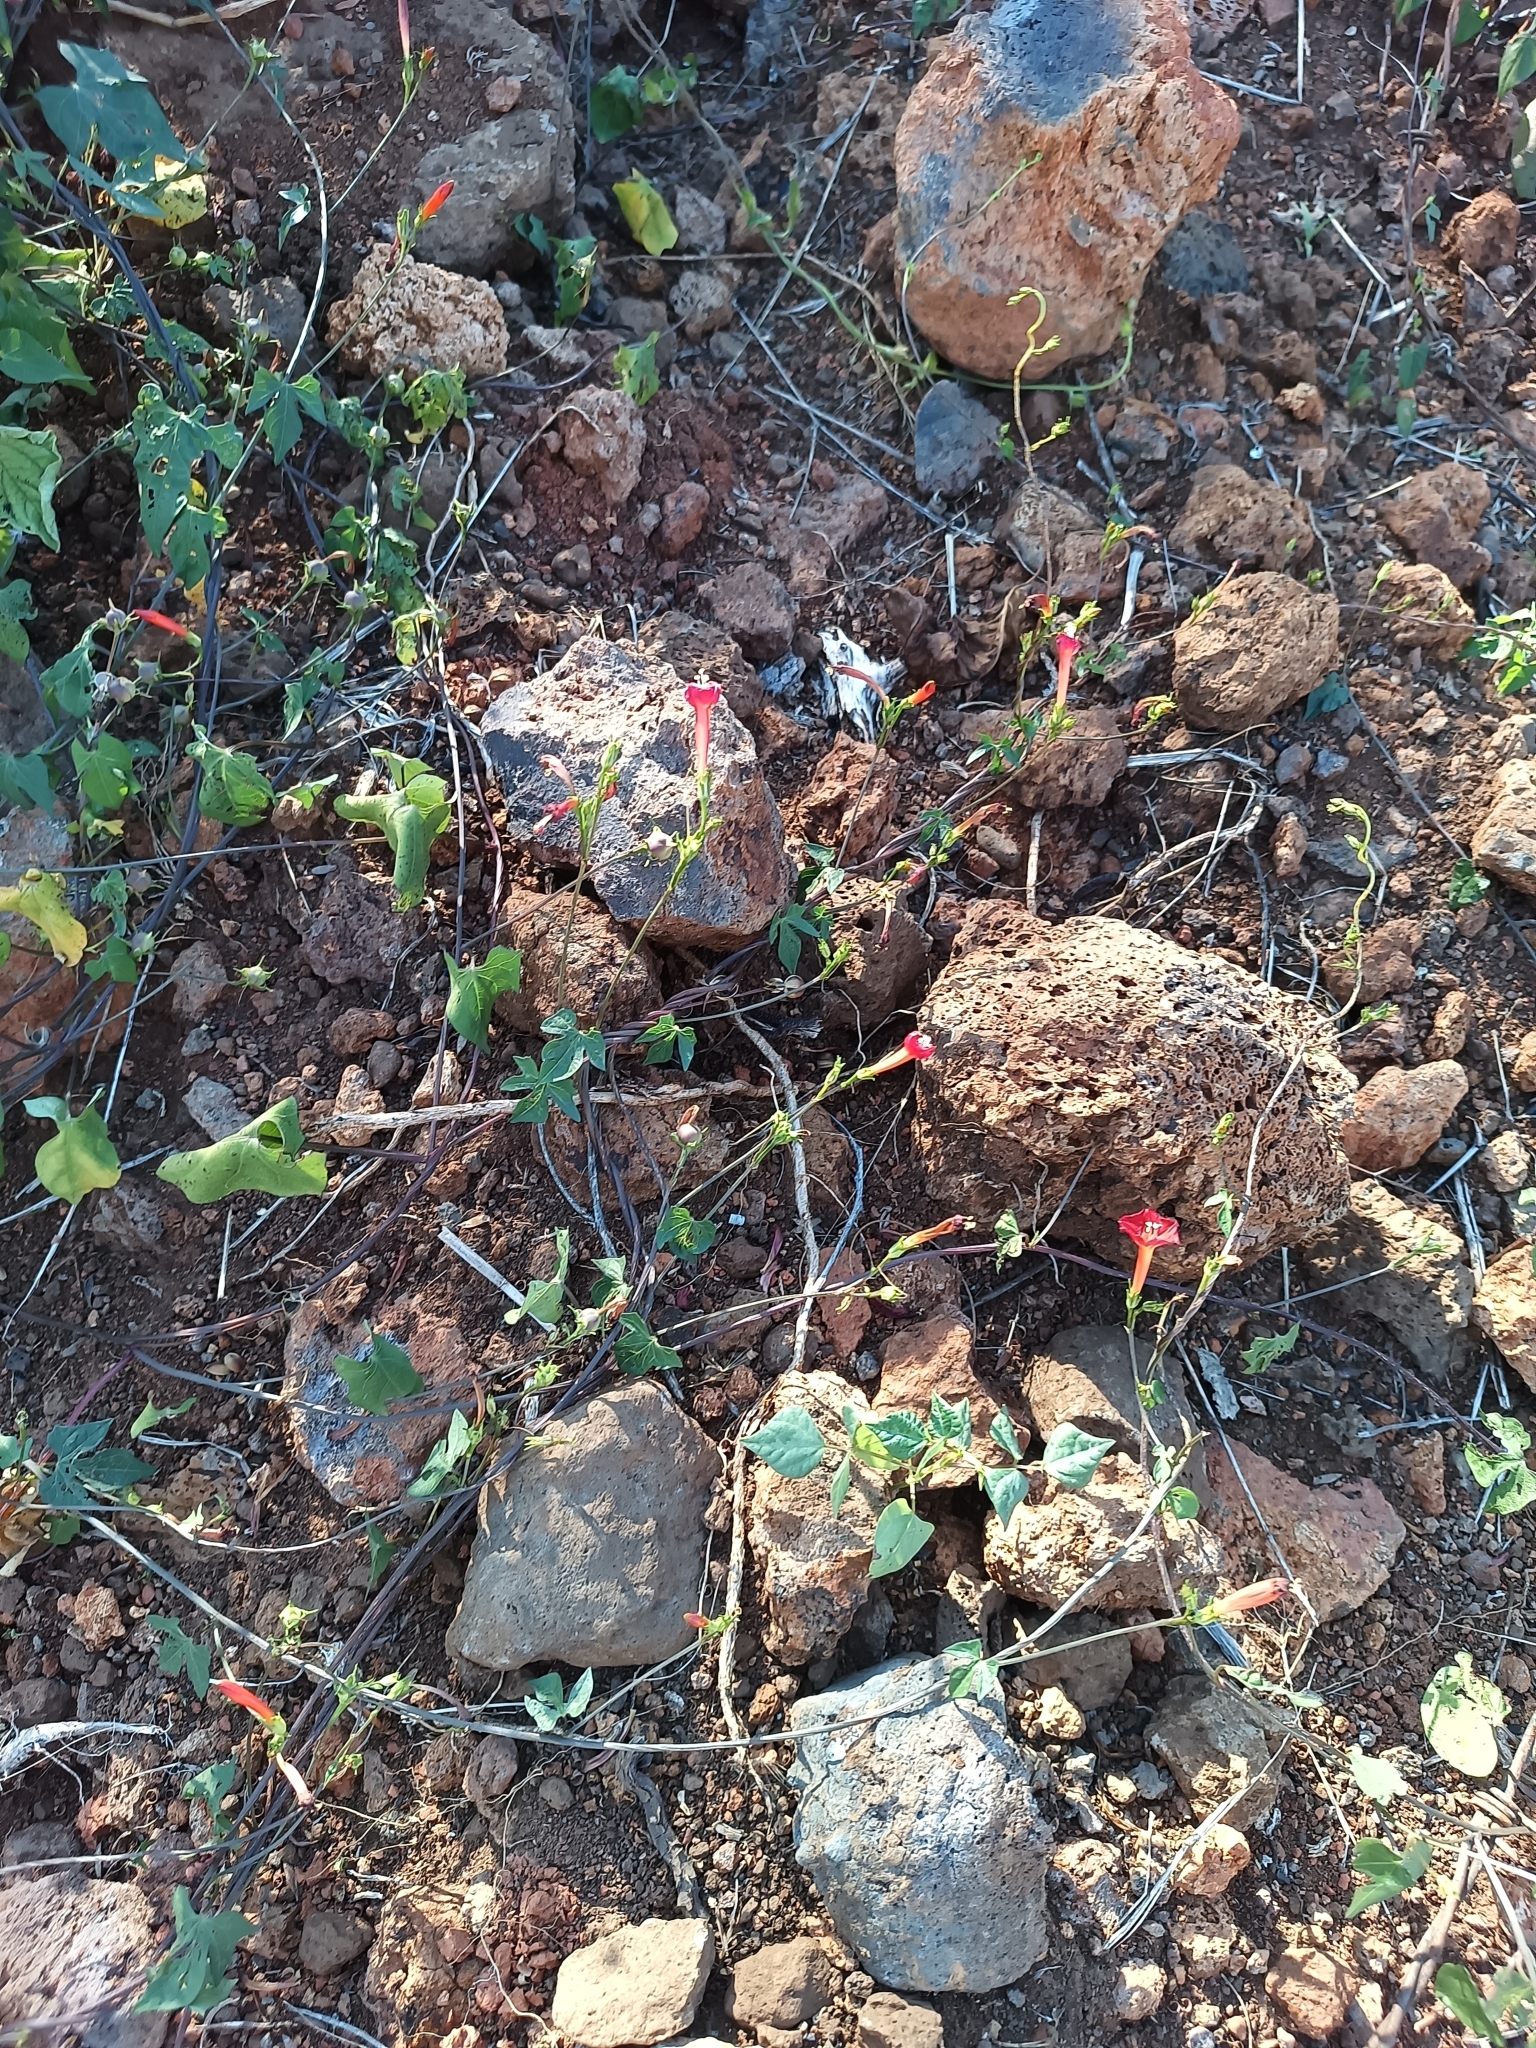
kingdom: Plantae
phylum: Tracheophyta
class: Magnoliopsida
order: Solanales
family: Convolvulaceae
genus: Ipomoea
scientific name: Ipomoea cholulensis
